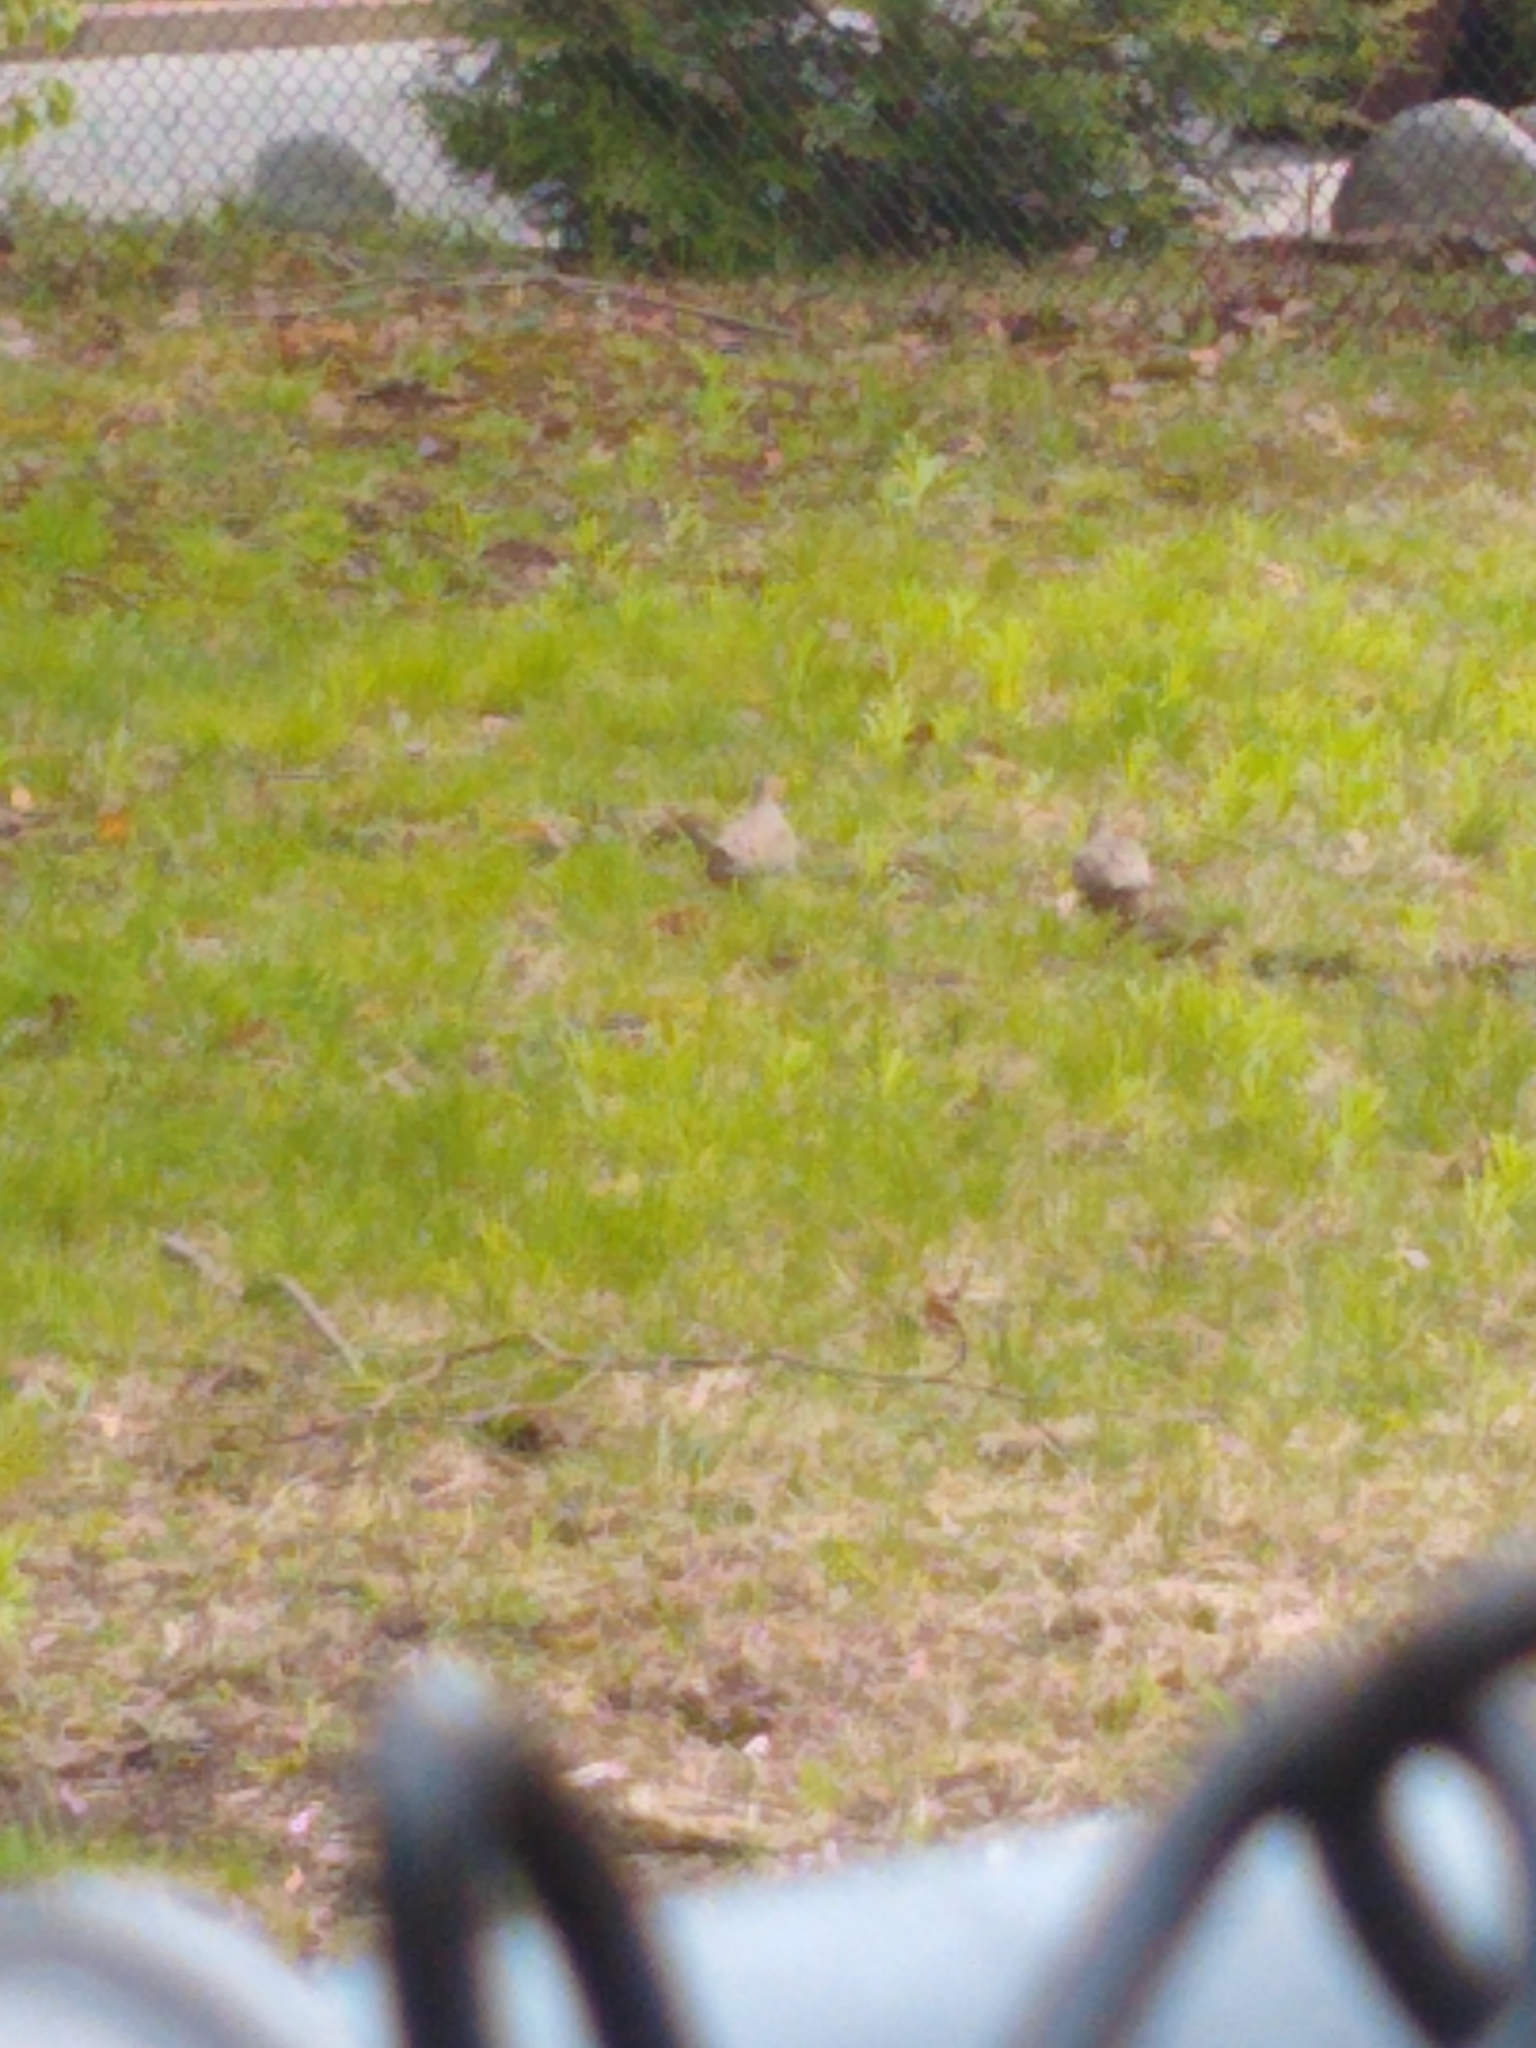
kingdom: Animalia
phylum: Chordata
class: Aves
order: Columbiformes
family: Columbidae
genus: Zenaida
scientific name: Zenaida macroura
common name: Mourning dove
